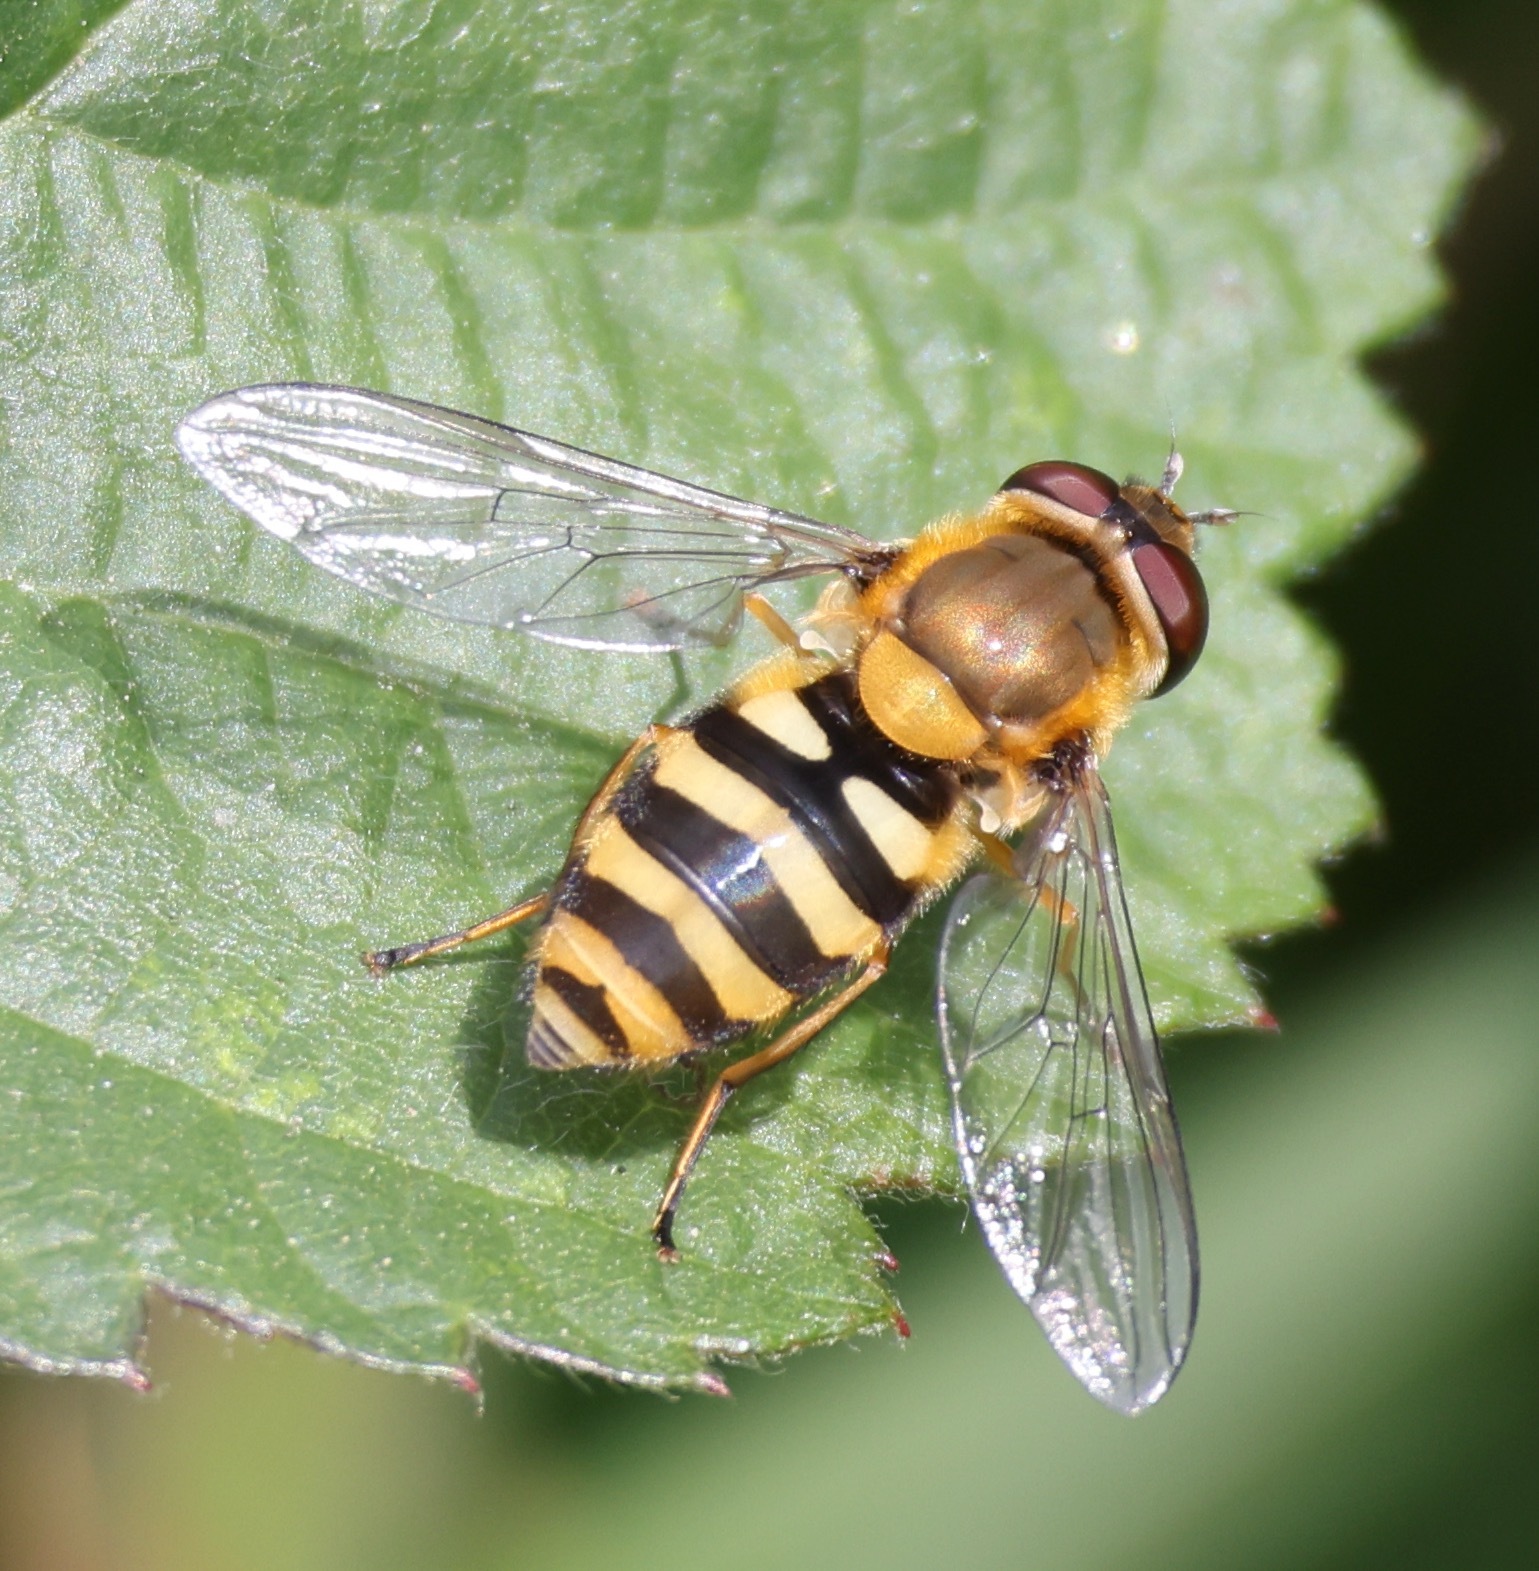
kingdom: Animalia
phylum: Arthropoda
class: Insecta
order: Diptera
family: Syrphidae
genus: Syrphus
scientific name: Syrphus
